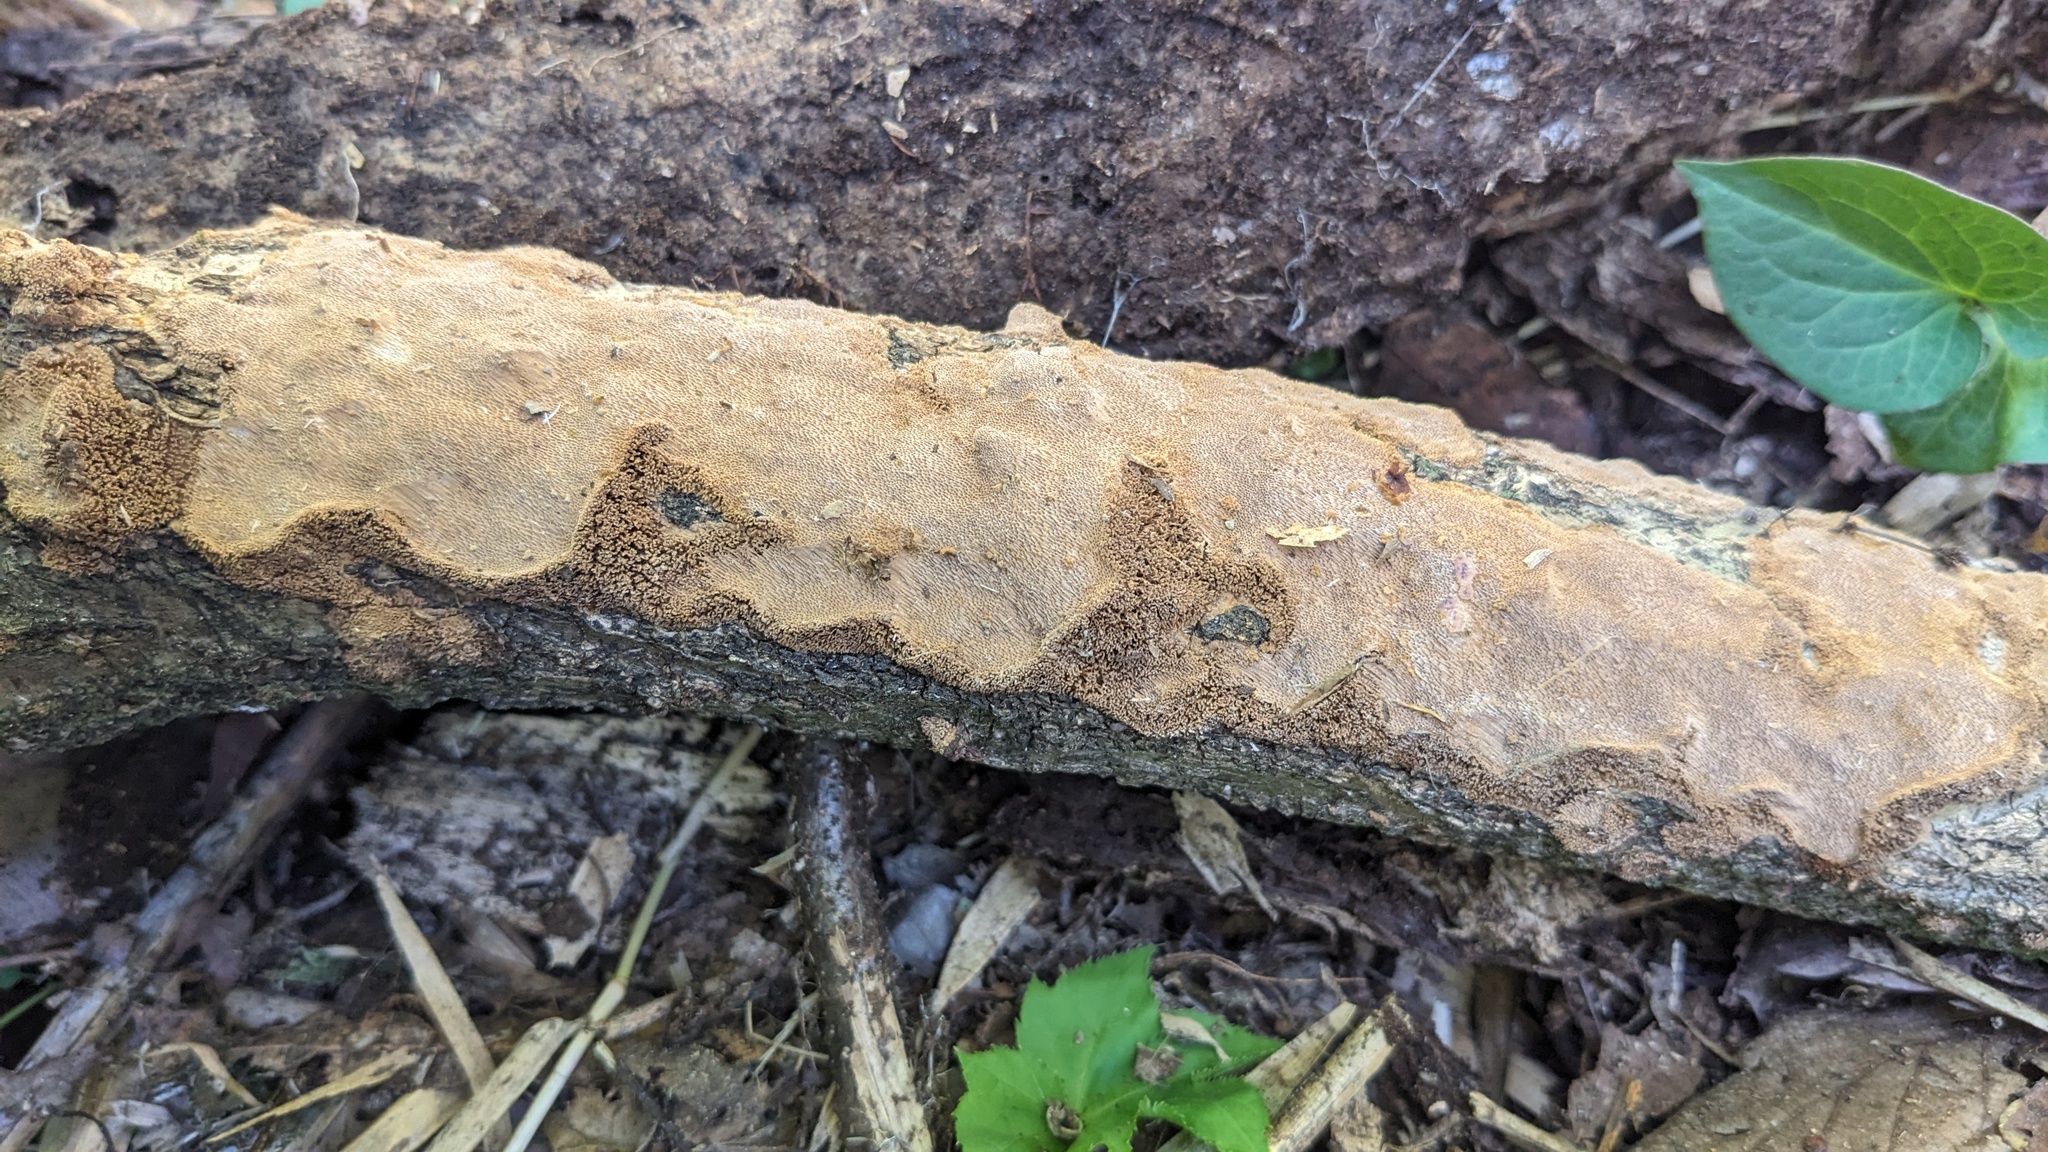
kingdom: Fungi
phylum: Basidiomycota
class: Agaricomycetes
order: Hymenochaetales
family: Hymenochaetaceae
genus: Fuscoporia
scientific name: Fuscoporia setifera
